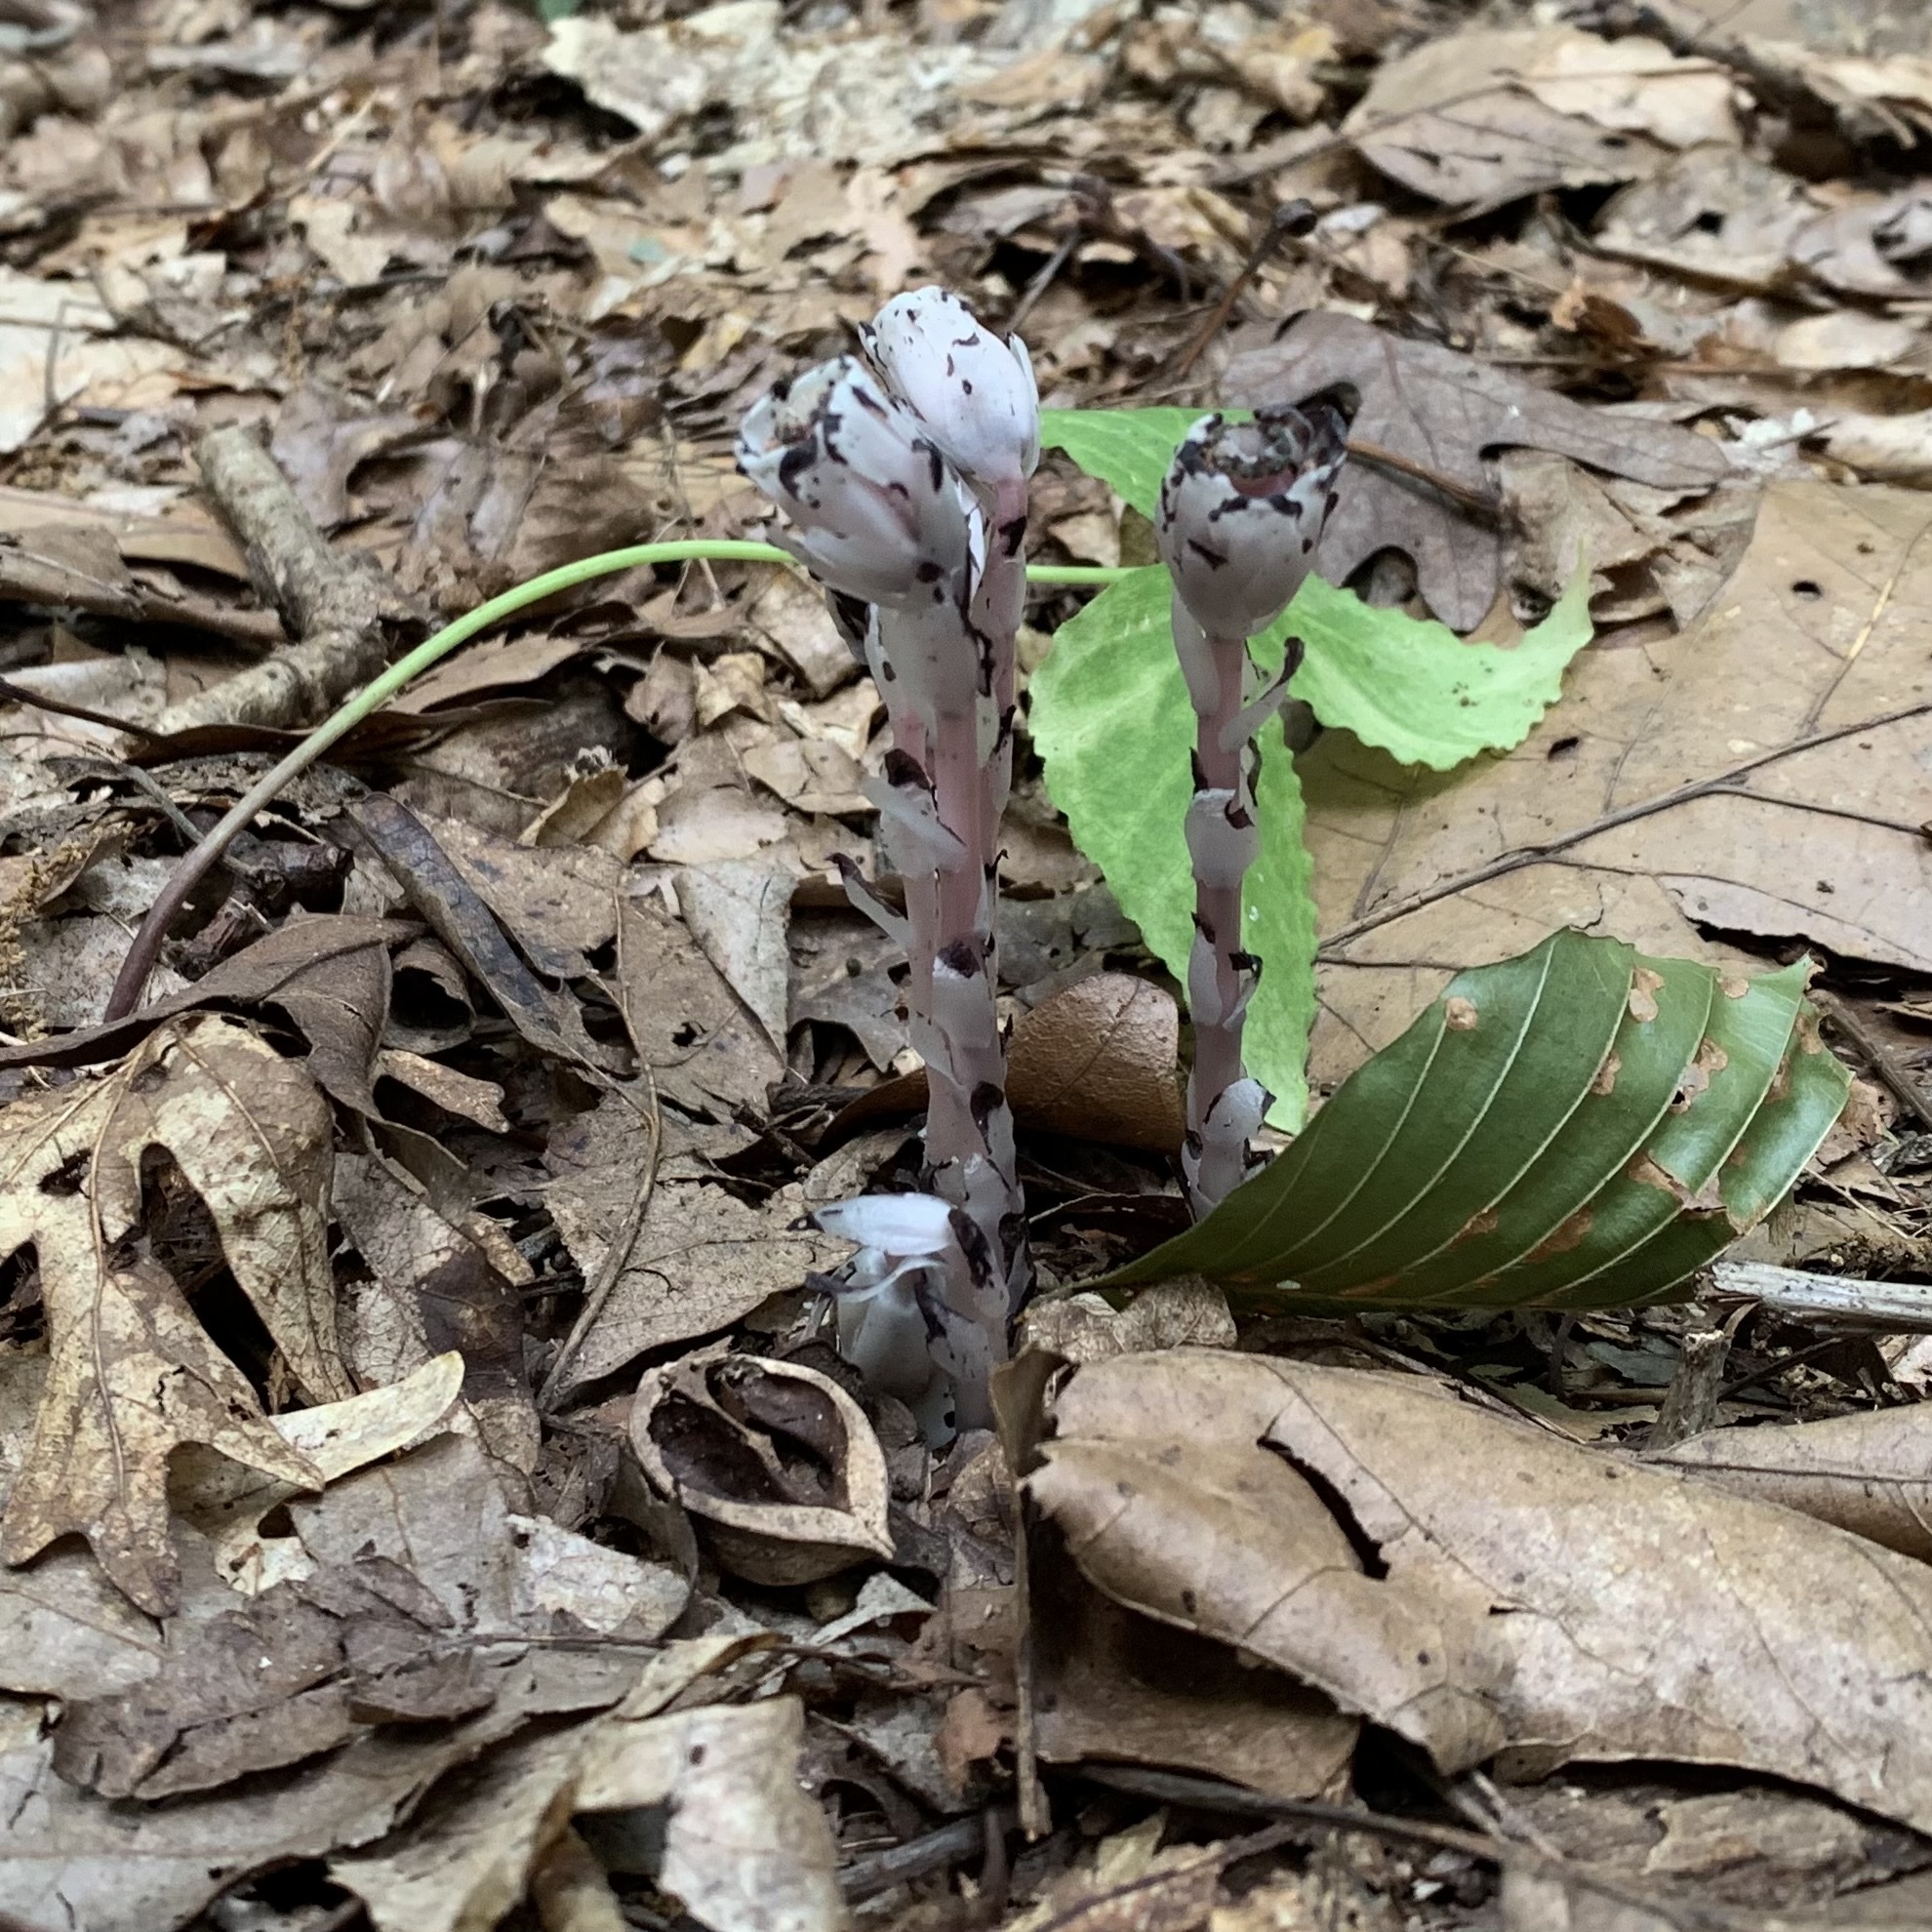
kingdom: Plantae
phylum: Tracheophyta
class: Magnoliopsida
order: Ericales
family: Ericaceae
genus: Monotropa
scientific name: Monotropa uniflora
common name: Convulsion root
